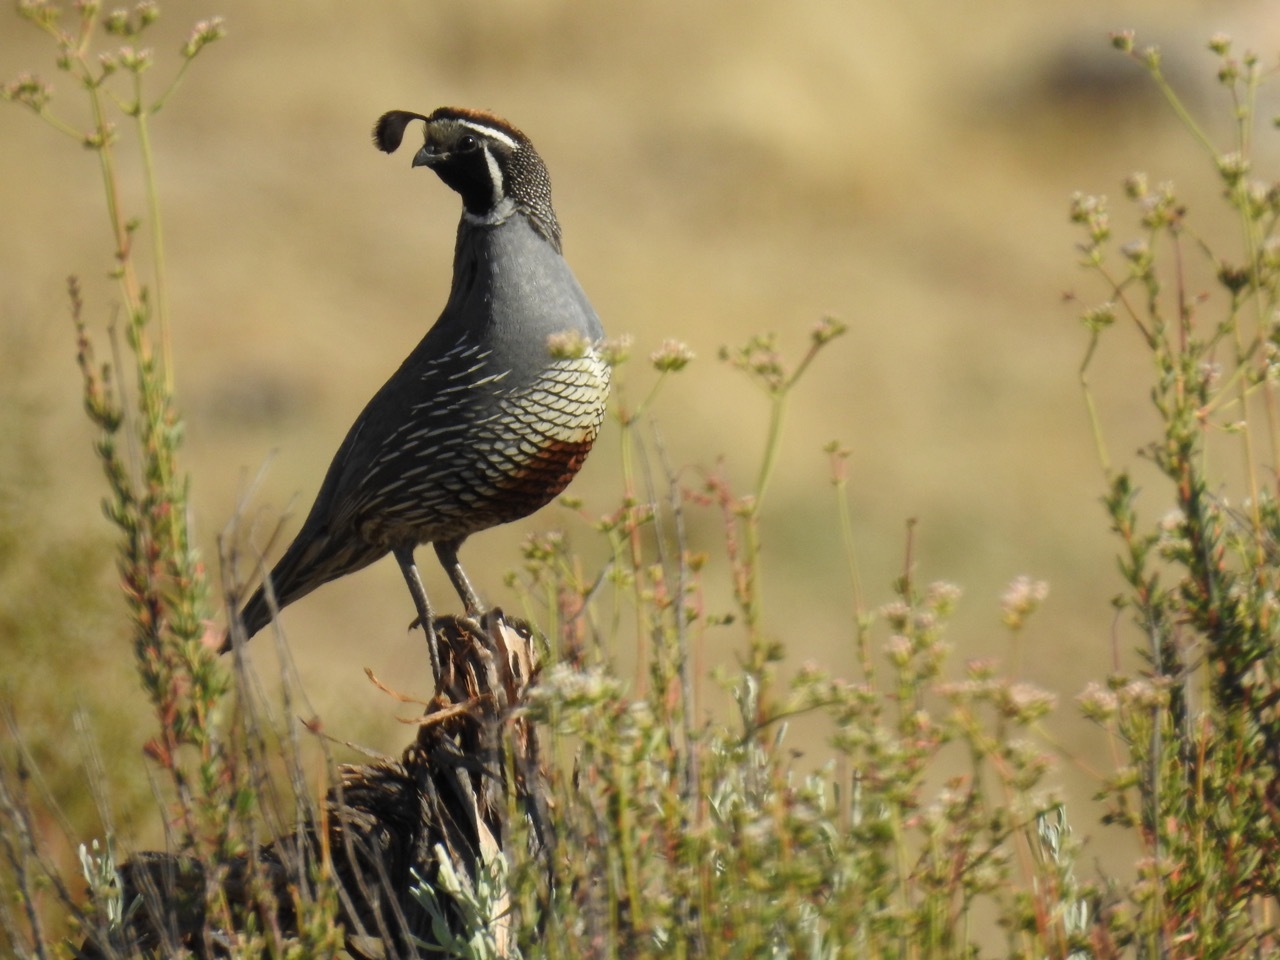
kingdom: Animalia
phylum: Chordata
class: Aves
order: Galliformes
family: Odontophoridae
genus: Callipepla
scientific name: Callipepla californica
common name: California quail
